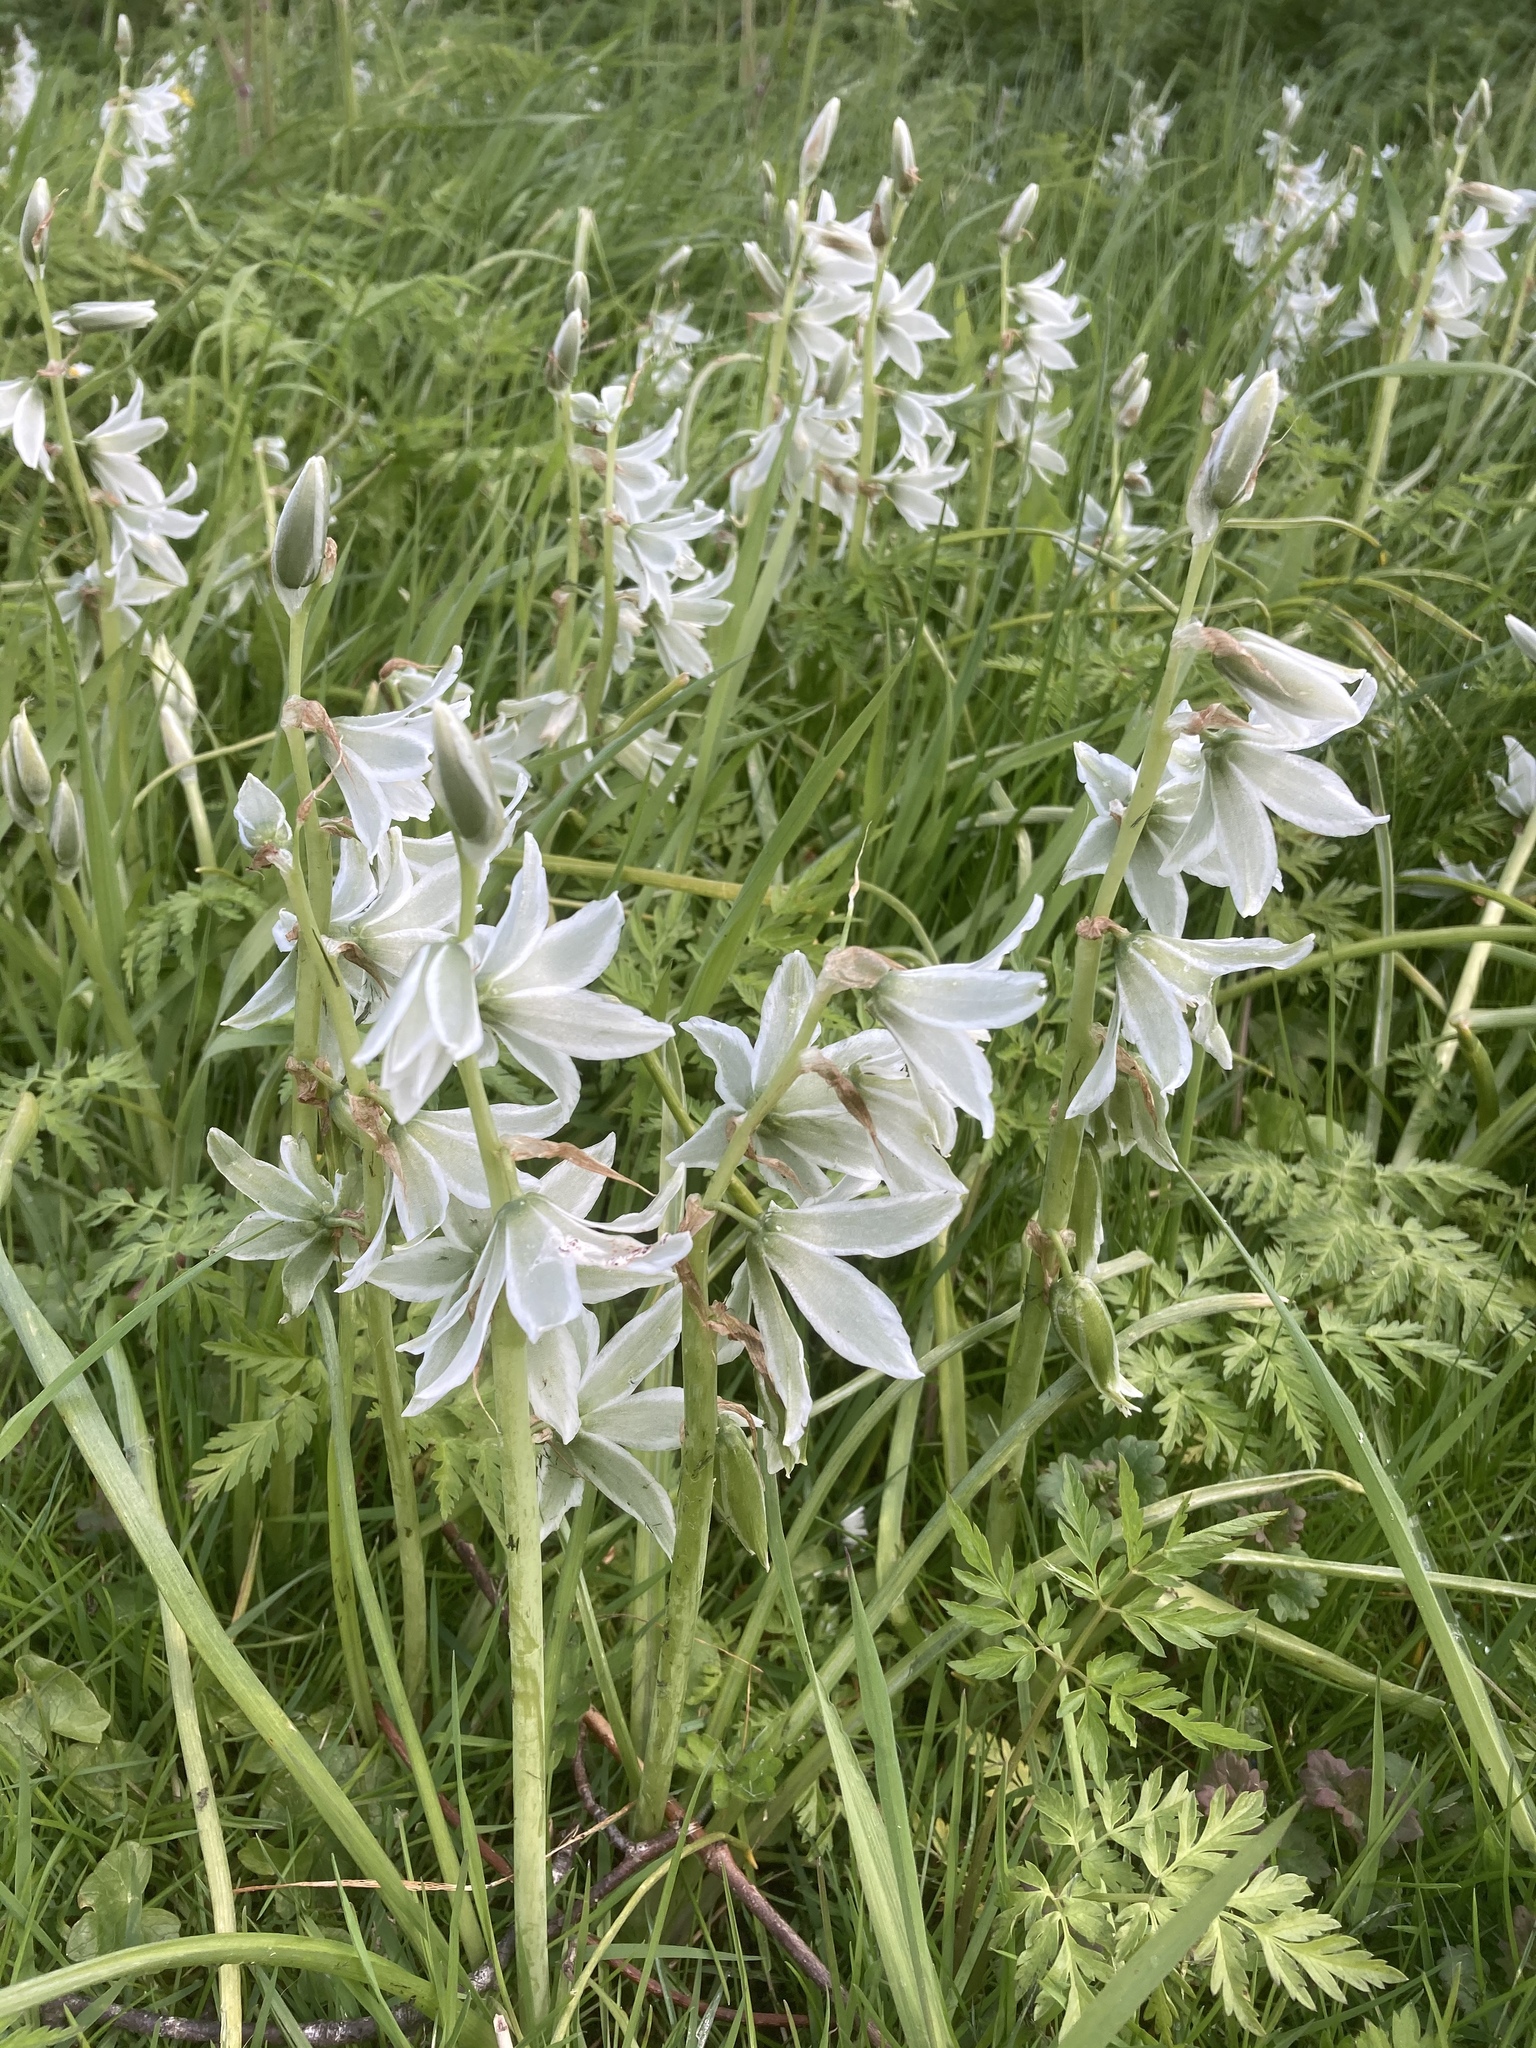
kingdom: Plantae
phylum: Tracheophyta
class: Liliopsida
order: Asparagales
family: Asparagaceae
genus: Ornithogalum
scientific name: Ornithogalum nutans
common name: Drooping star-of-bethlehem
